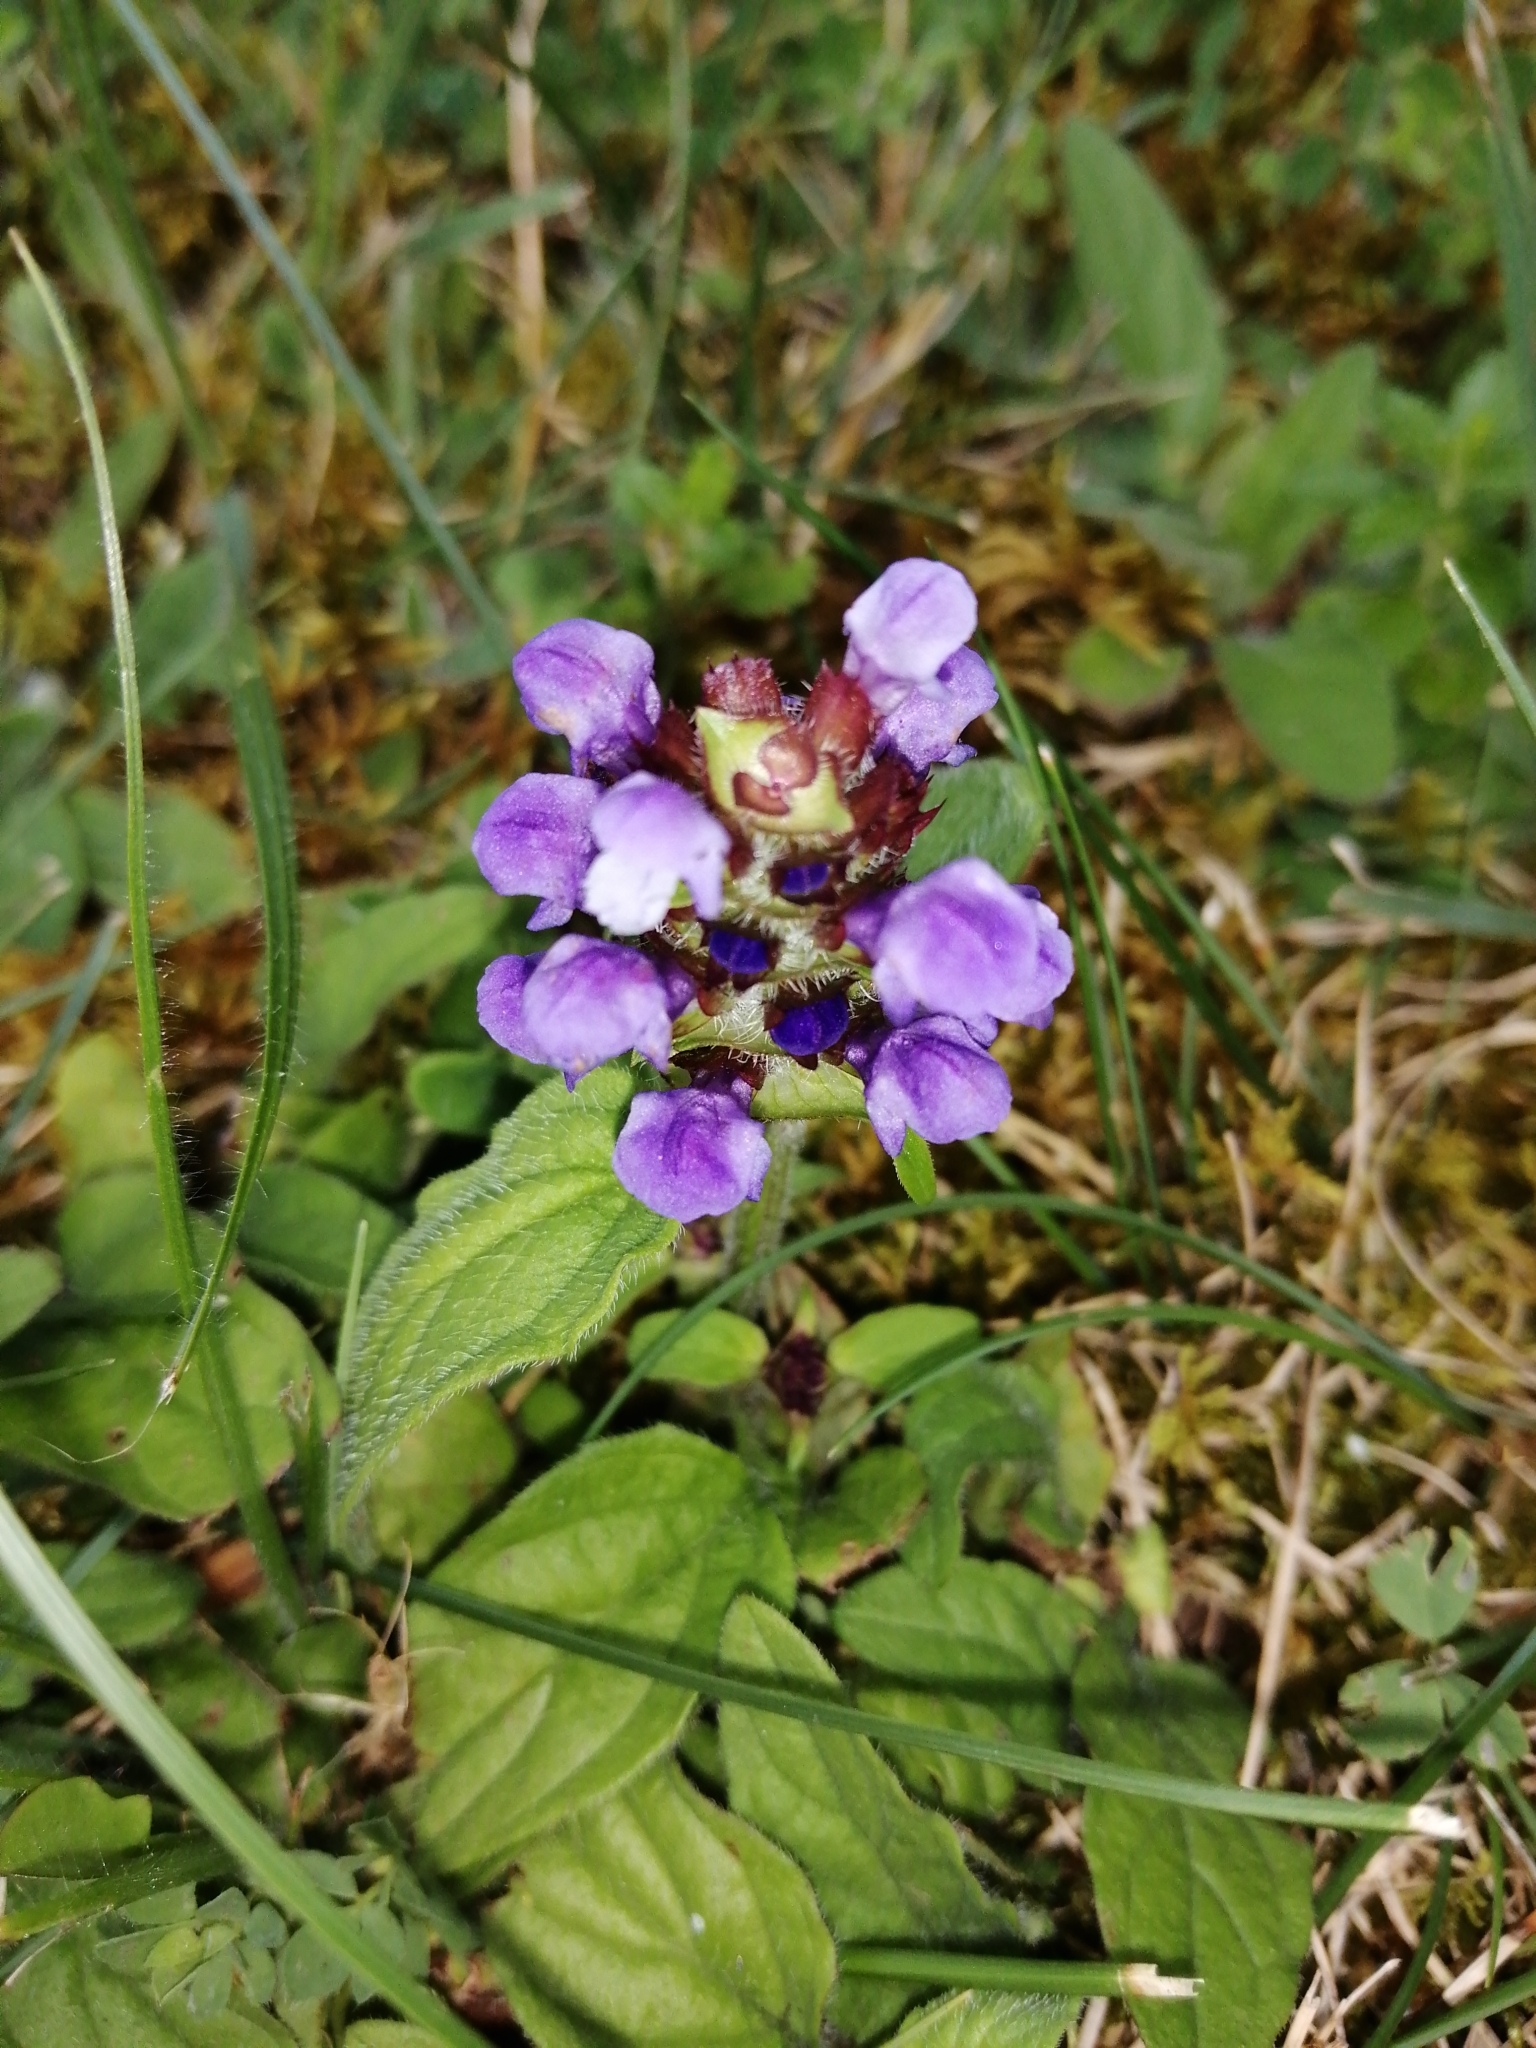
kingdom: Plantae
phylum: Tracheophyta
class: Magnoliopsida
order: Lamiales
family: Lamiaceae
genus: Prunella
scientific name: Prunella vulgaris
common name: Heal-all
